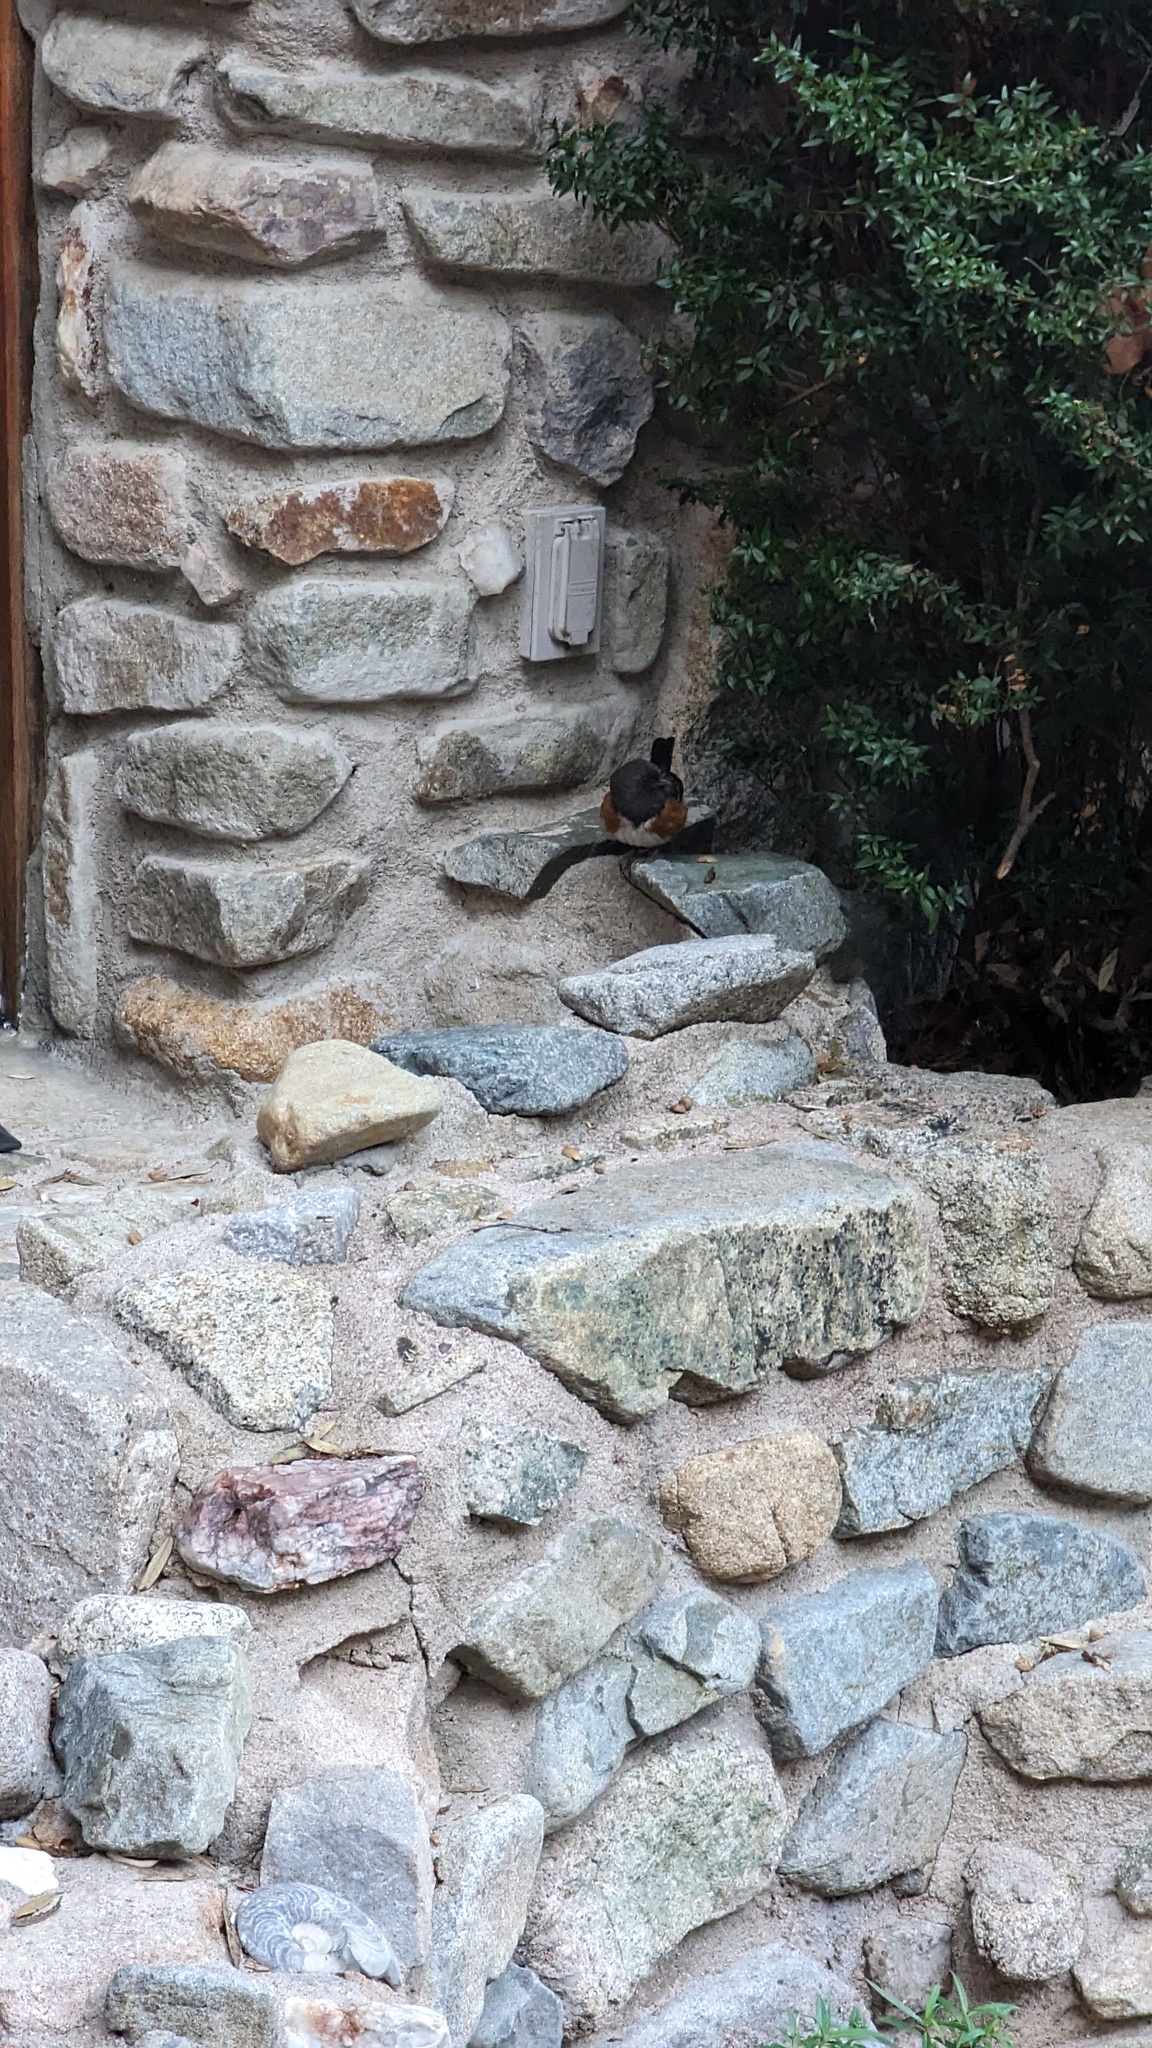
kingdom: Animalia
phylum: Chordata
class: Aves
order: Passeriformes
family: Passerellidae
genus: Pipilo
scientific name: Pipilo maculatus
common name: Spotted towhee
